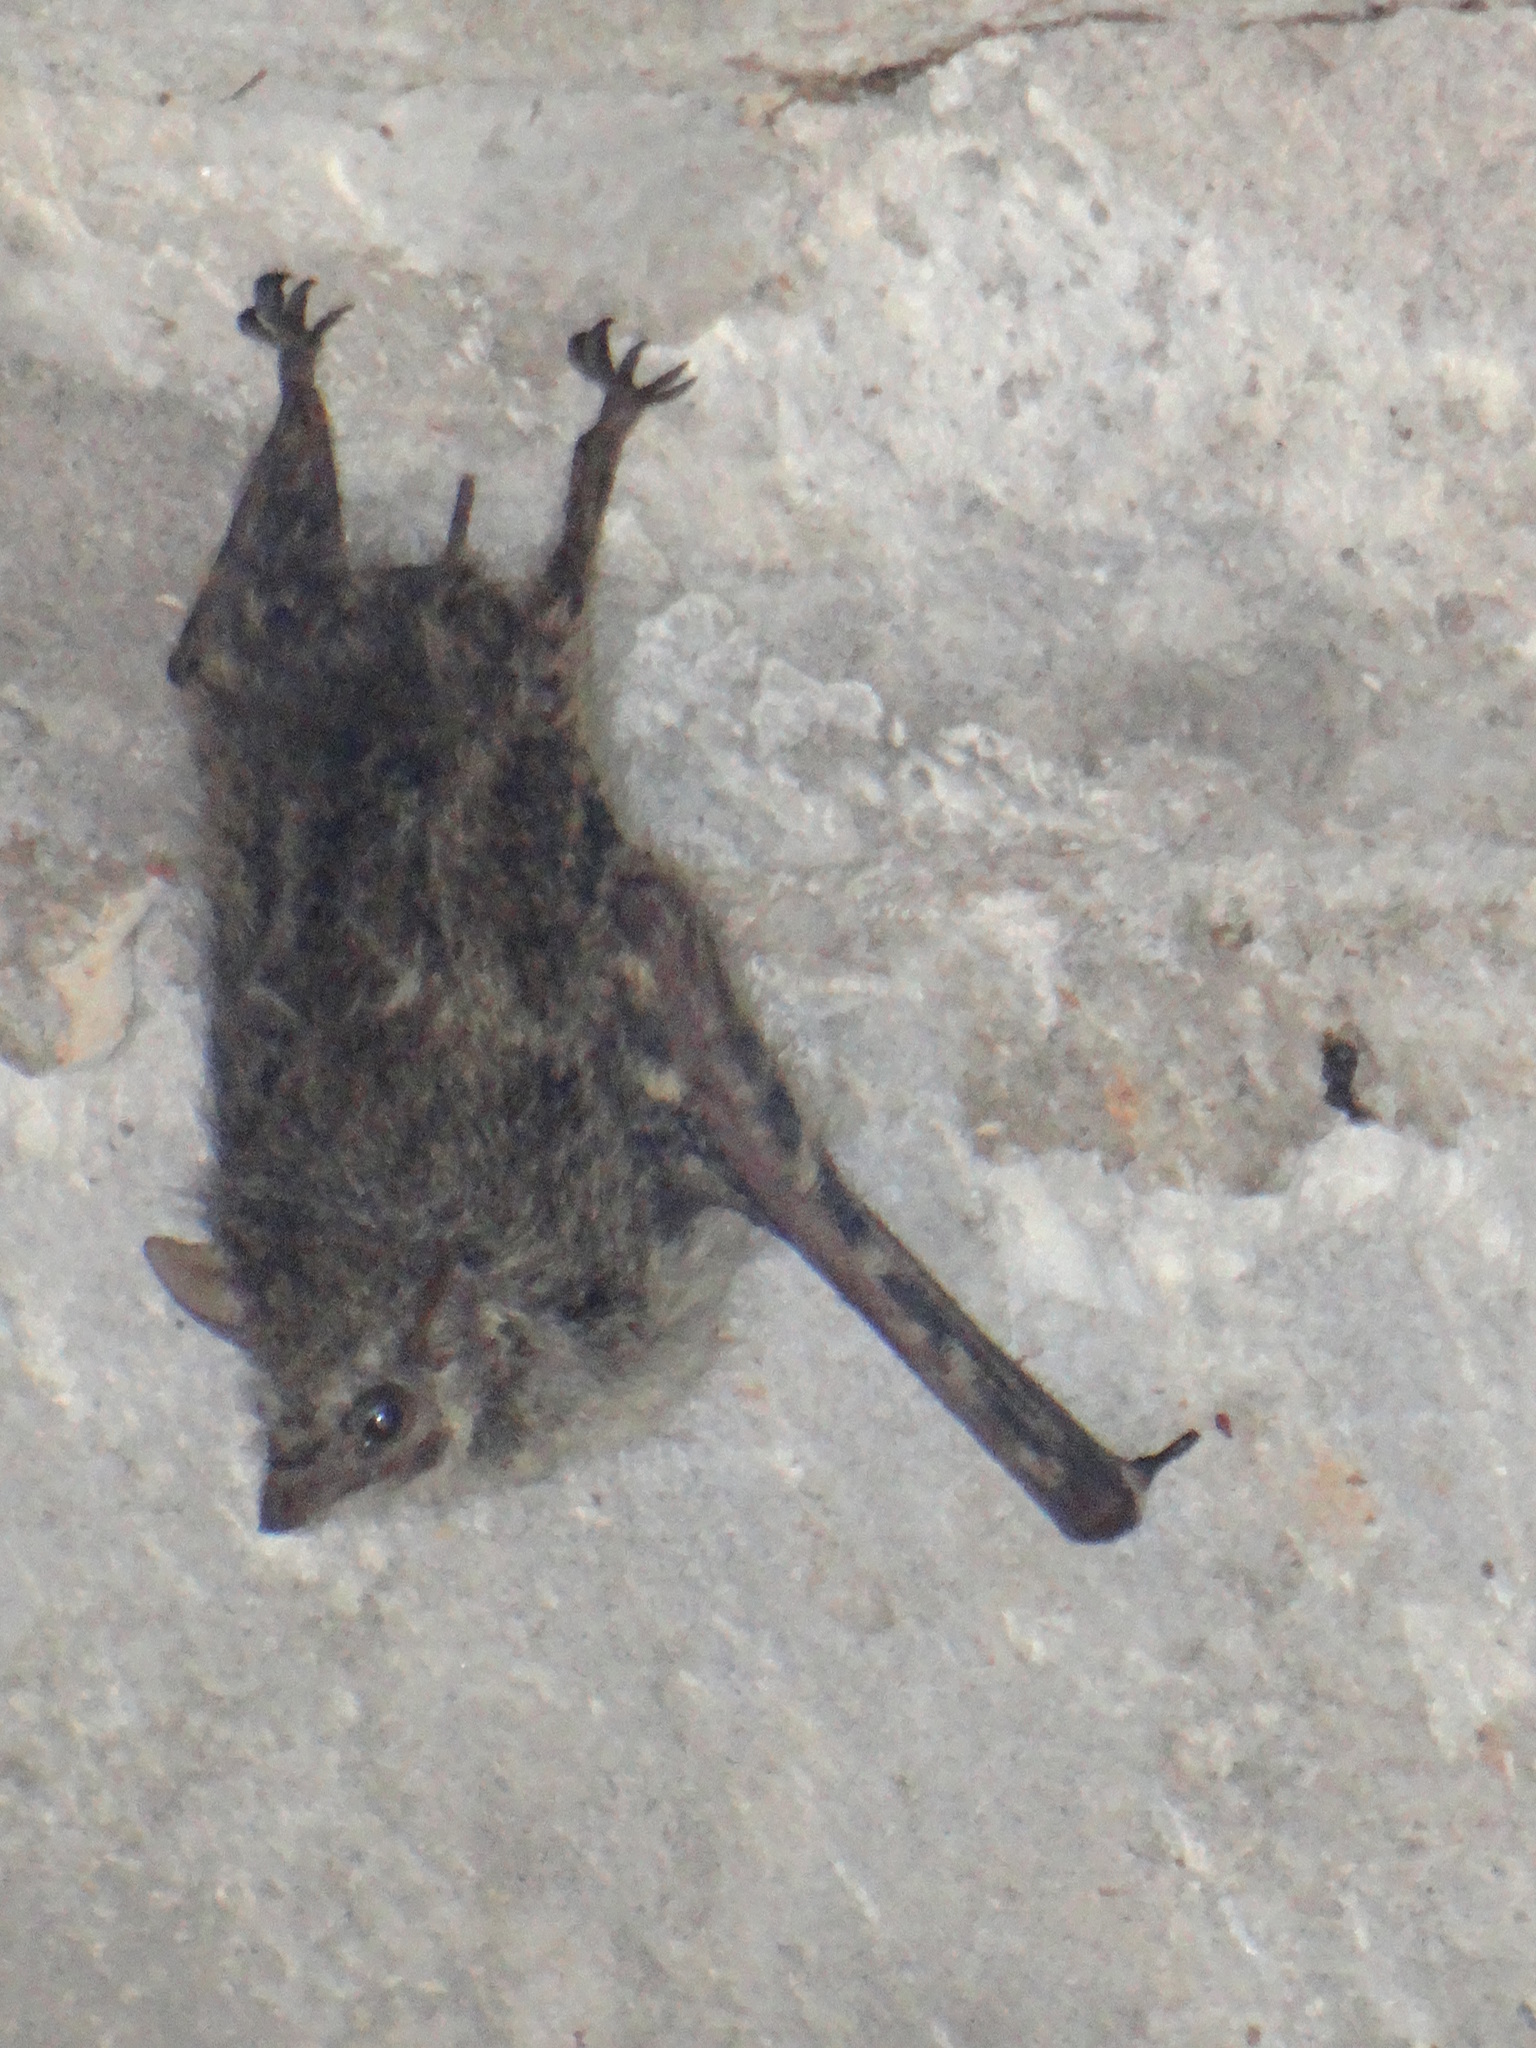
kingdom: Animalia
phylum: Chordata
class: Mammalia
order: Chiroptera
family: Emballonuridae
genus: Rhynchonycteris
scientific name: Rhynchonycteris naso
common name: Proboscis bat
